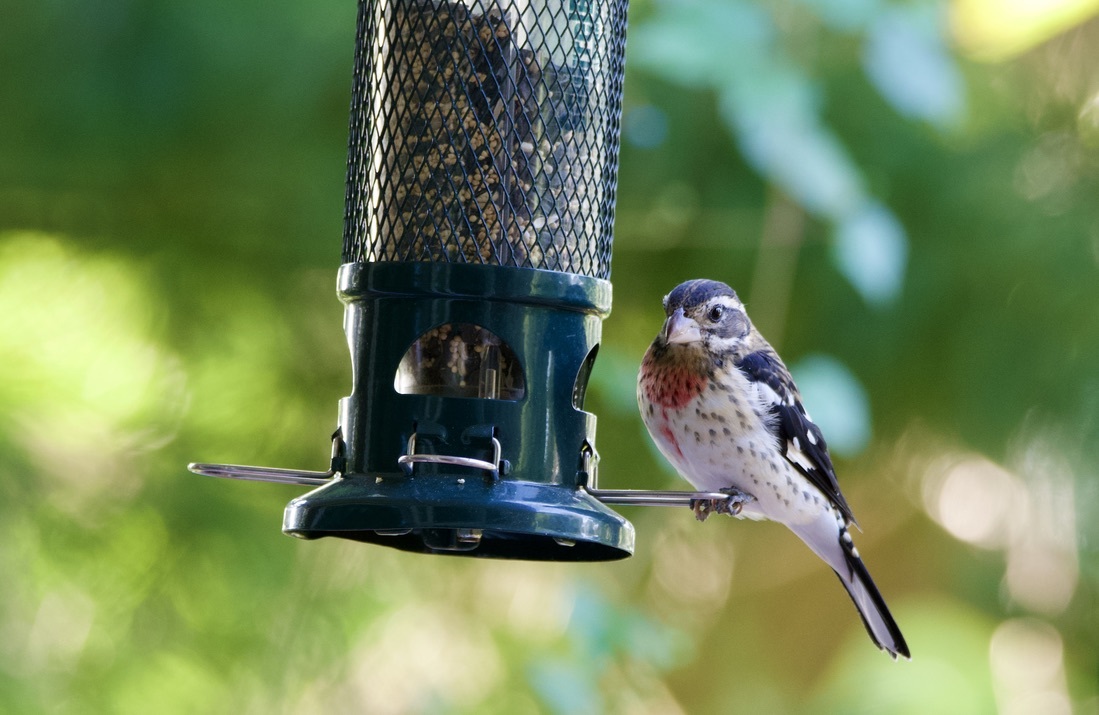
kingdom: Animalia
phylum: Chordata
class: Aves
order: Passeriformes
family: Cardinalidae
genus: Pheucticus
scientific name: Pheucticus ludovicianus
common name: Rose-breasted grosbeak
